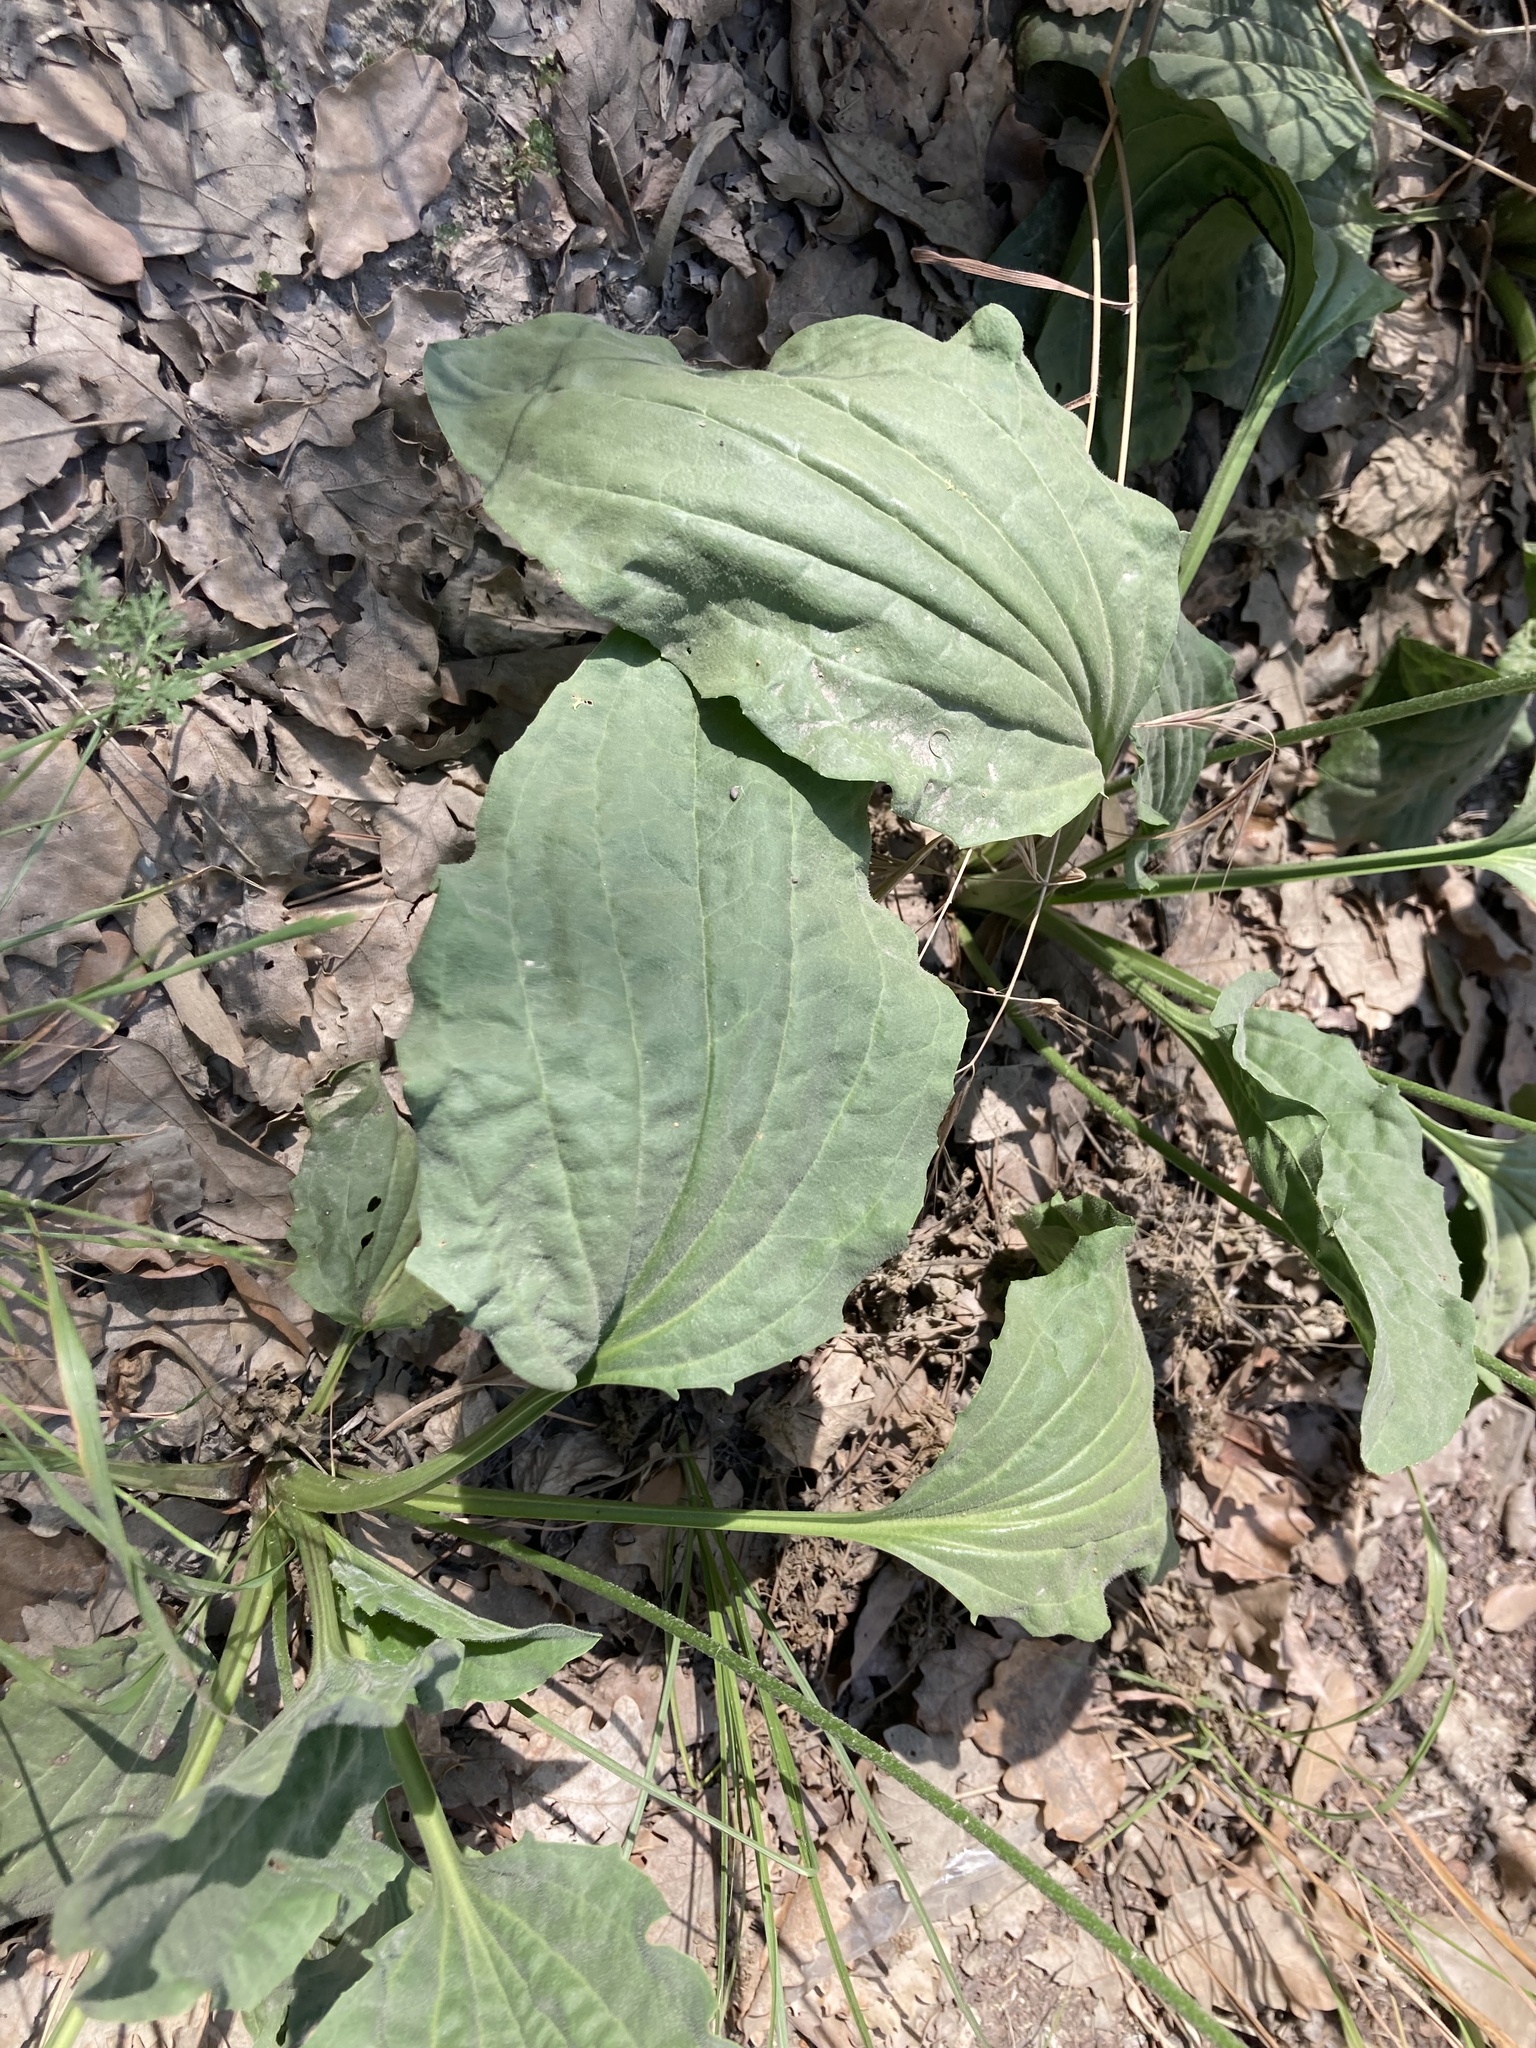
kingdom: Plantae
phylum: Tracheophyta
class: Magnoliopsida
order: Lamiales
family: Plantaginaceae
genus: Plantago
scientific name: Plantago major
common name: Common plantain
